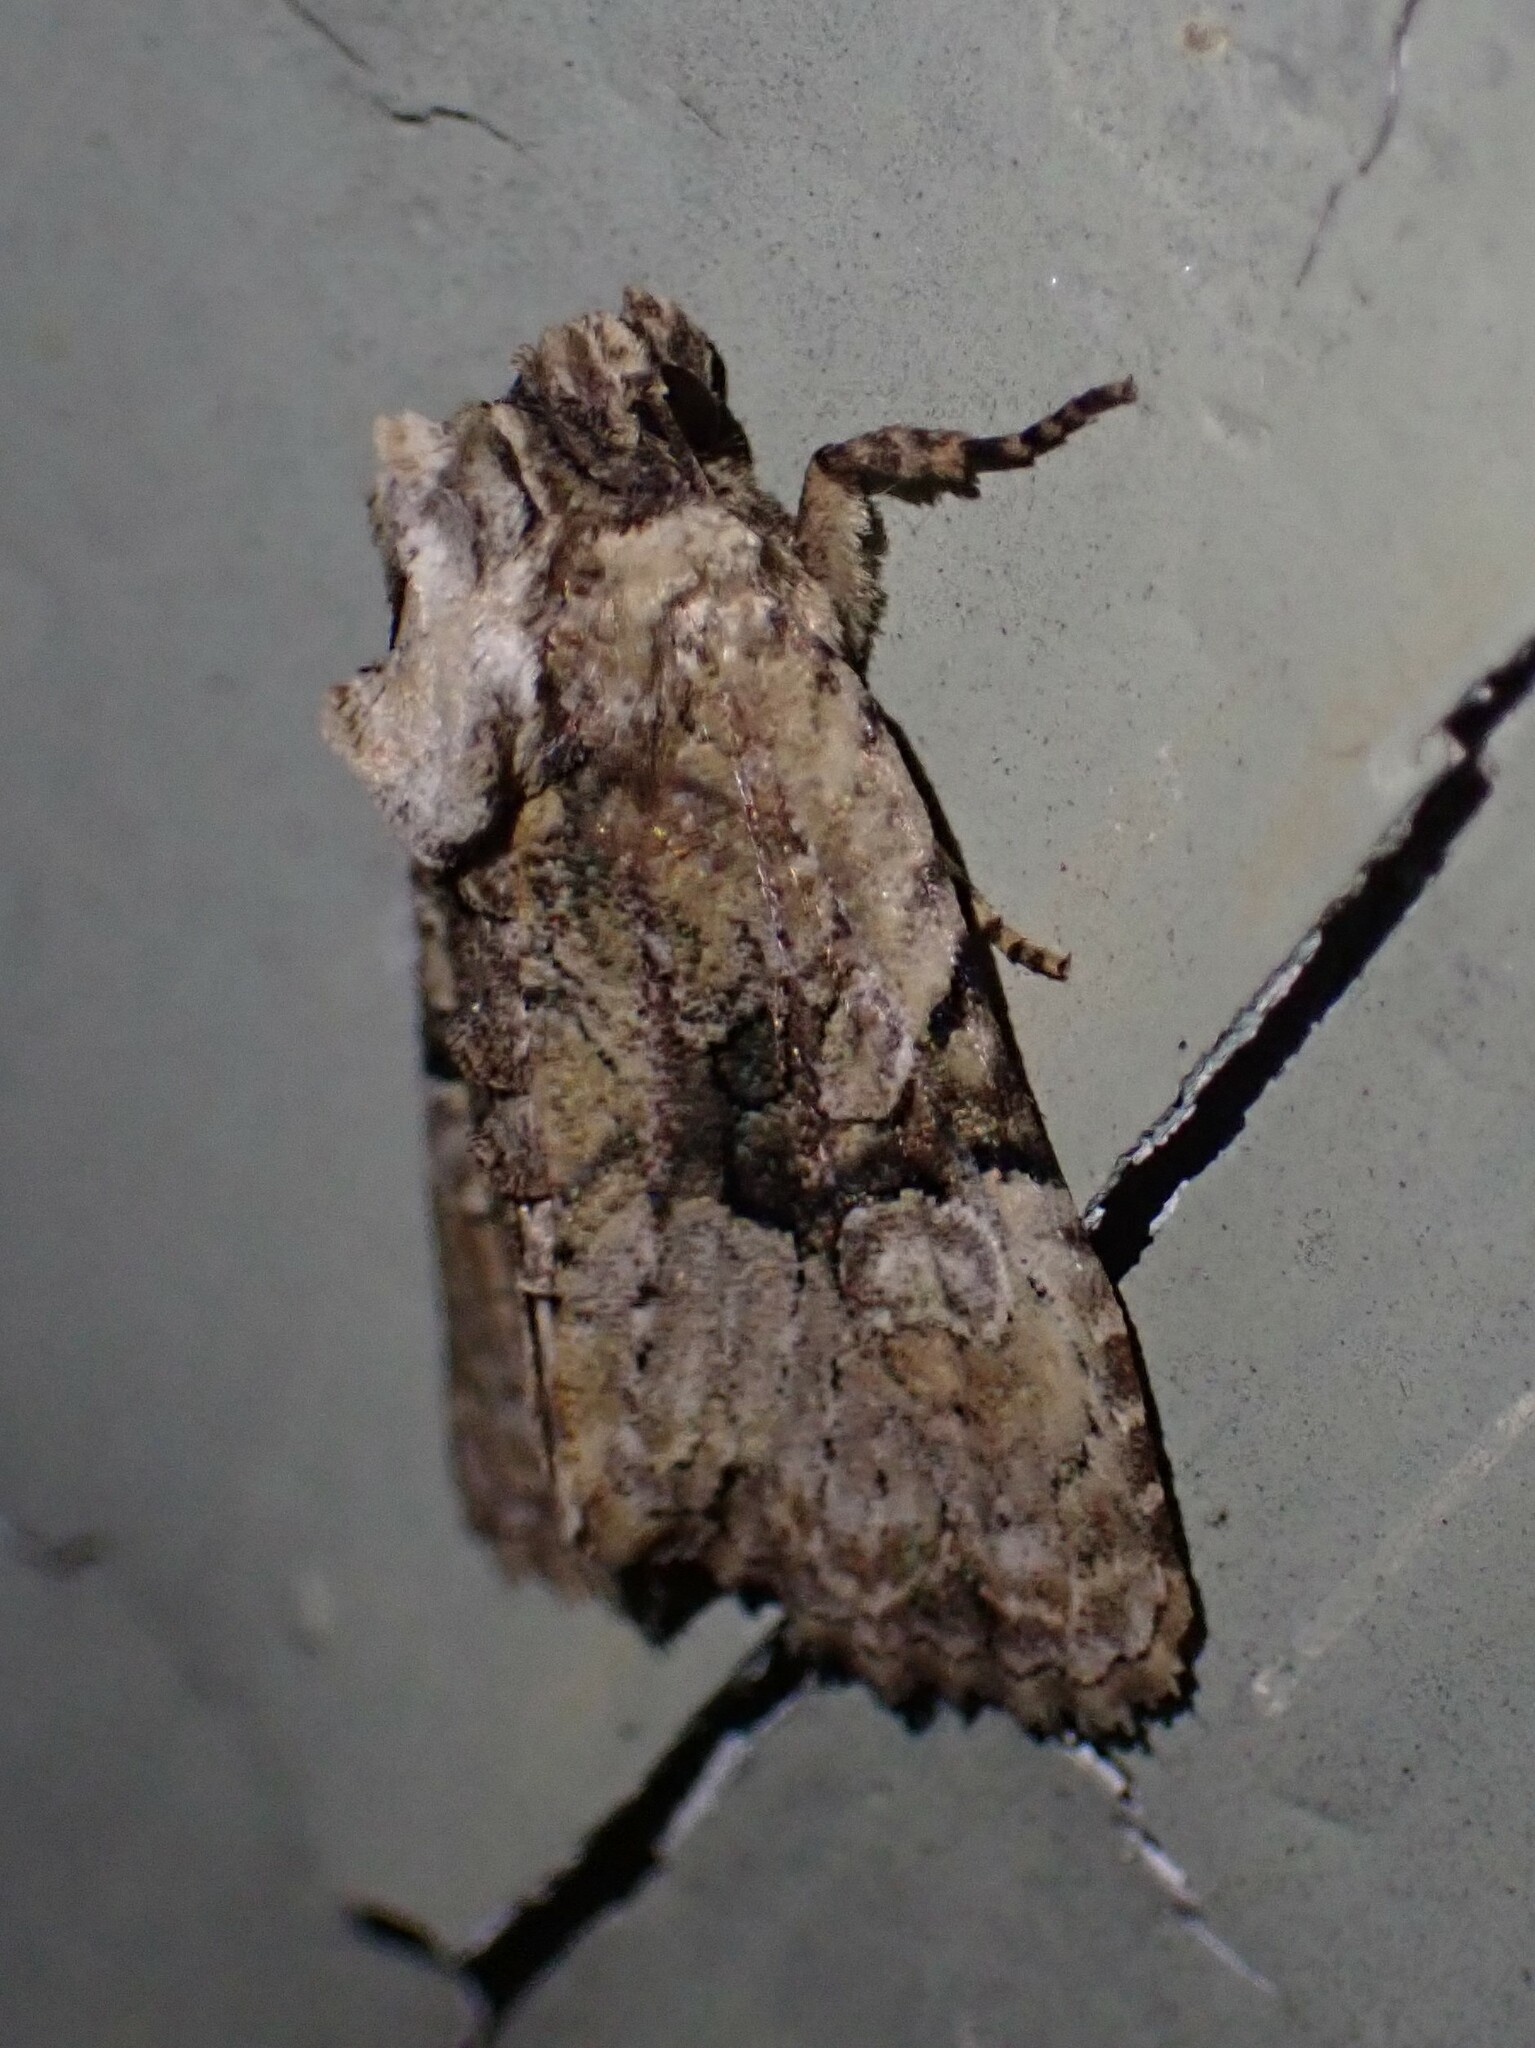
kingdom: Animalia
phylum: Arthropoda
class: Insecta
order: Lepidoptera
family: Noctuidae
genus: Oligia
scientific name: Oligia modica
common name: Black-banded brocade
